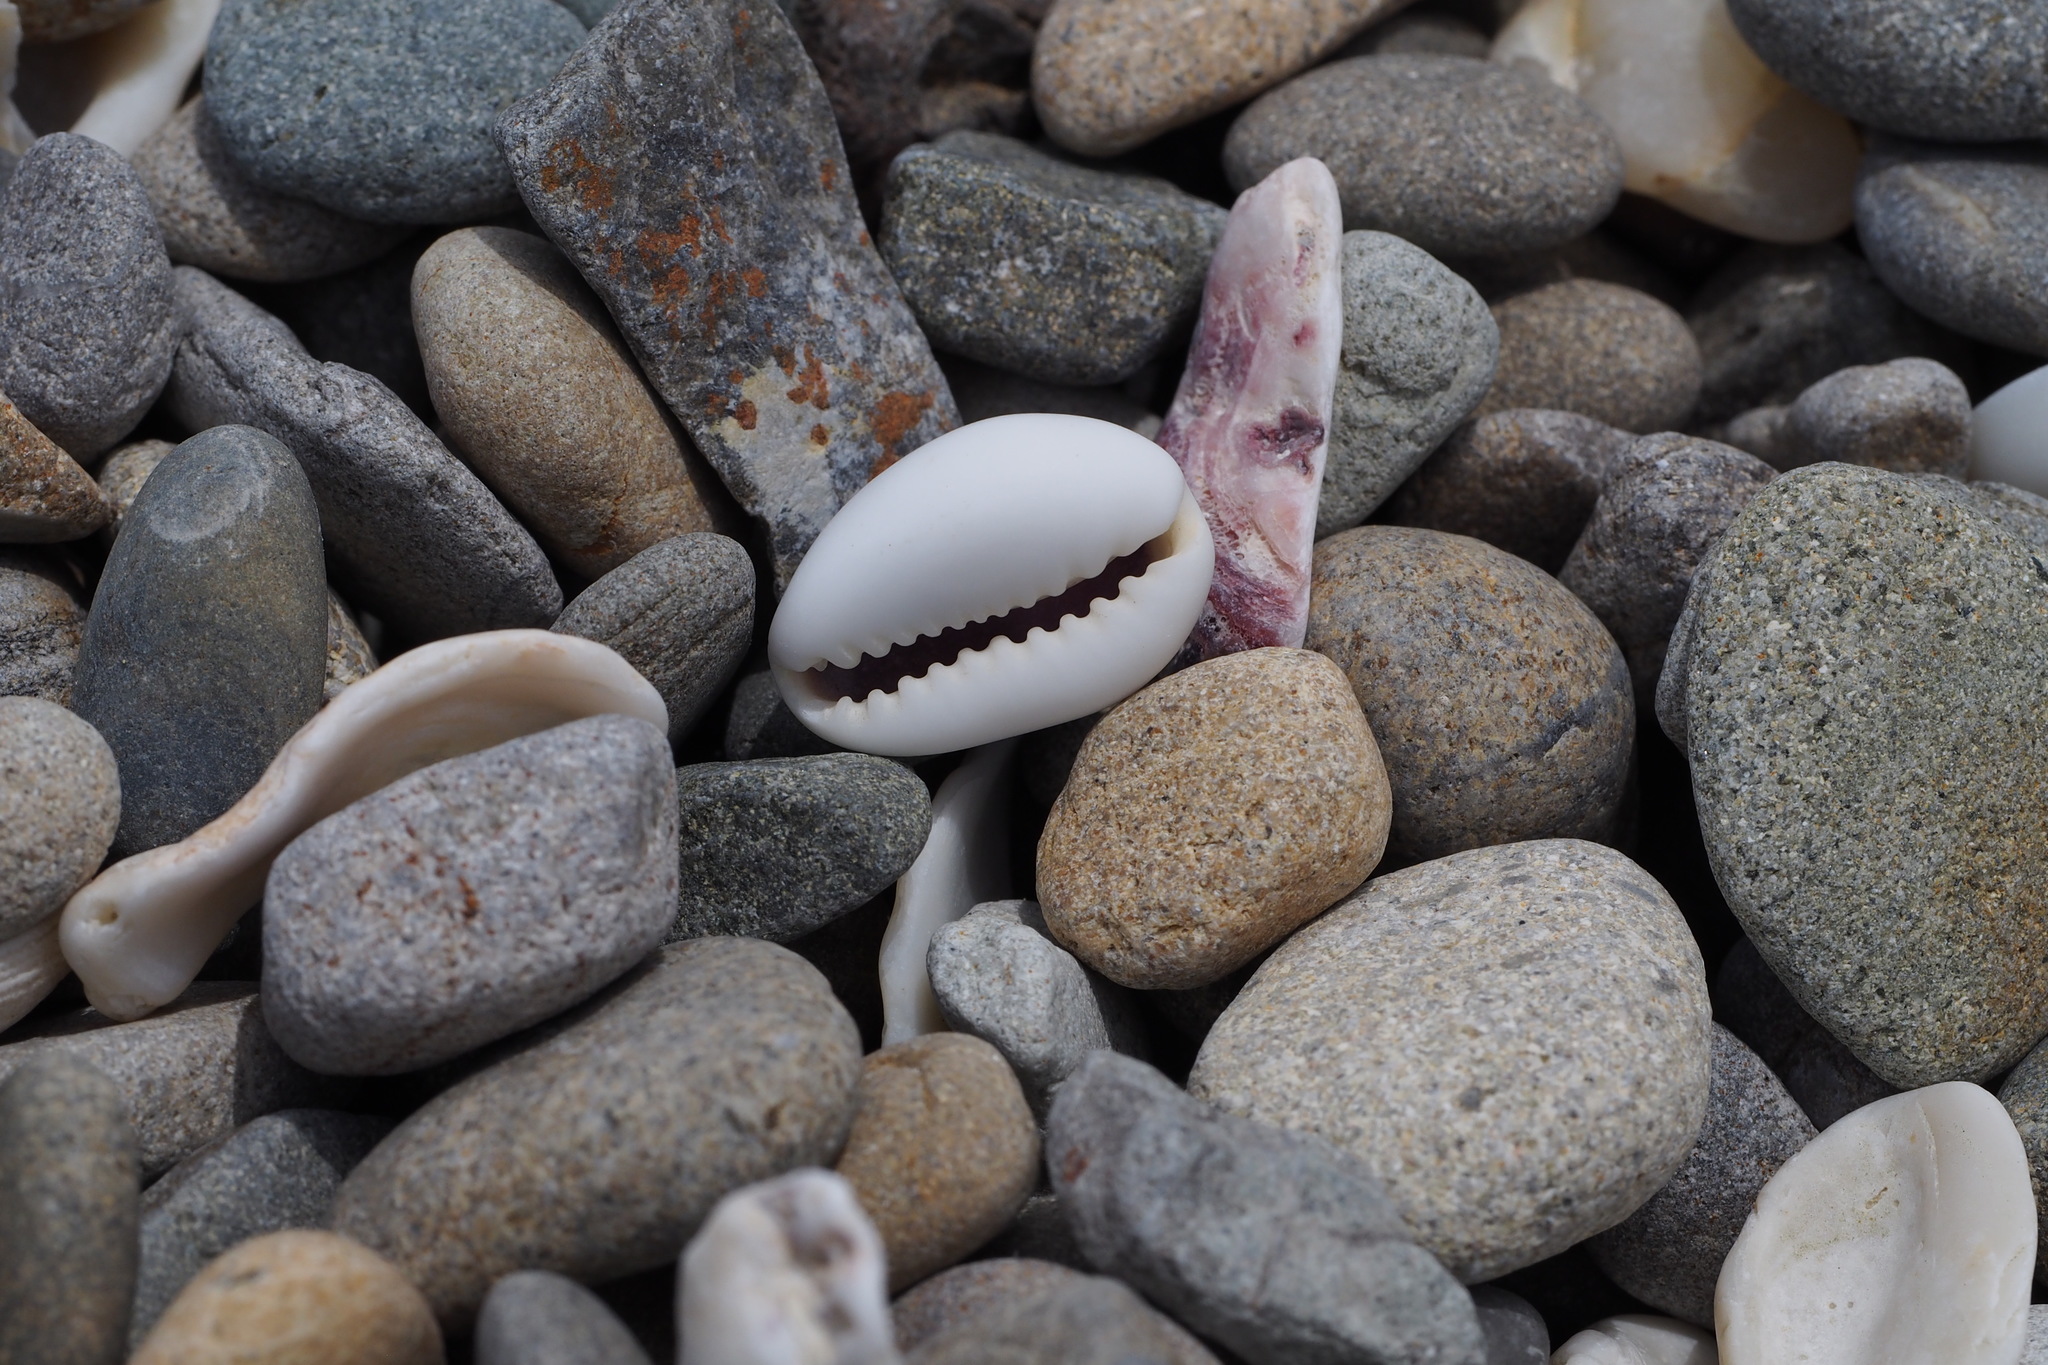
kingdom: Animalia
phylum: Mollusca
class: Gastropoda
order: Littorinimorpha
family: Cypraeidae
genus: Monetaria
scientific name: Monetaria annulus
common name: Ring cowrie
